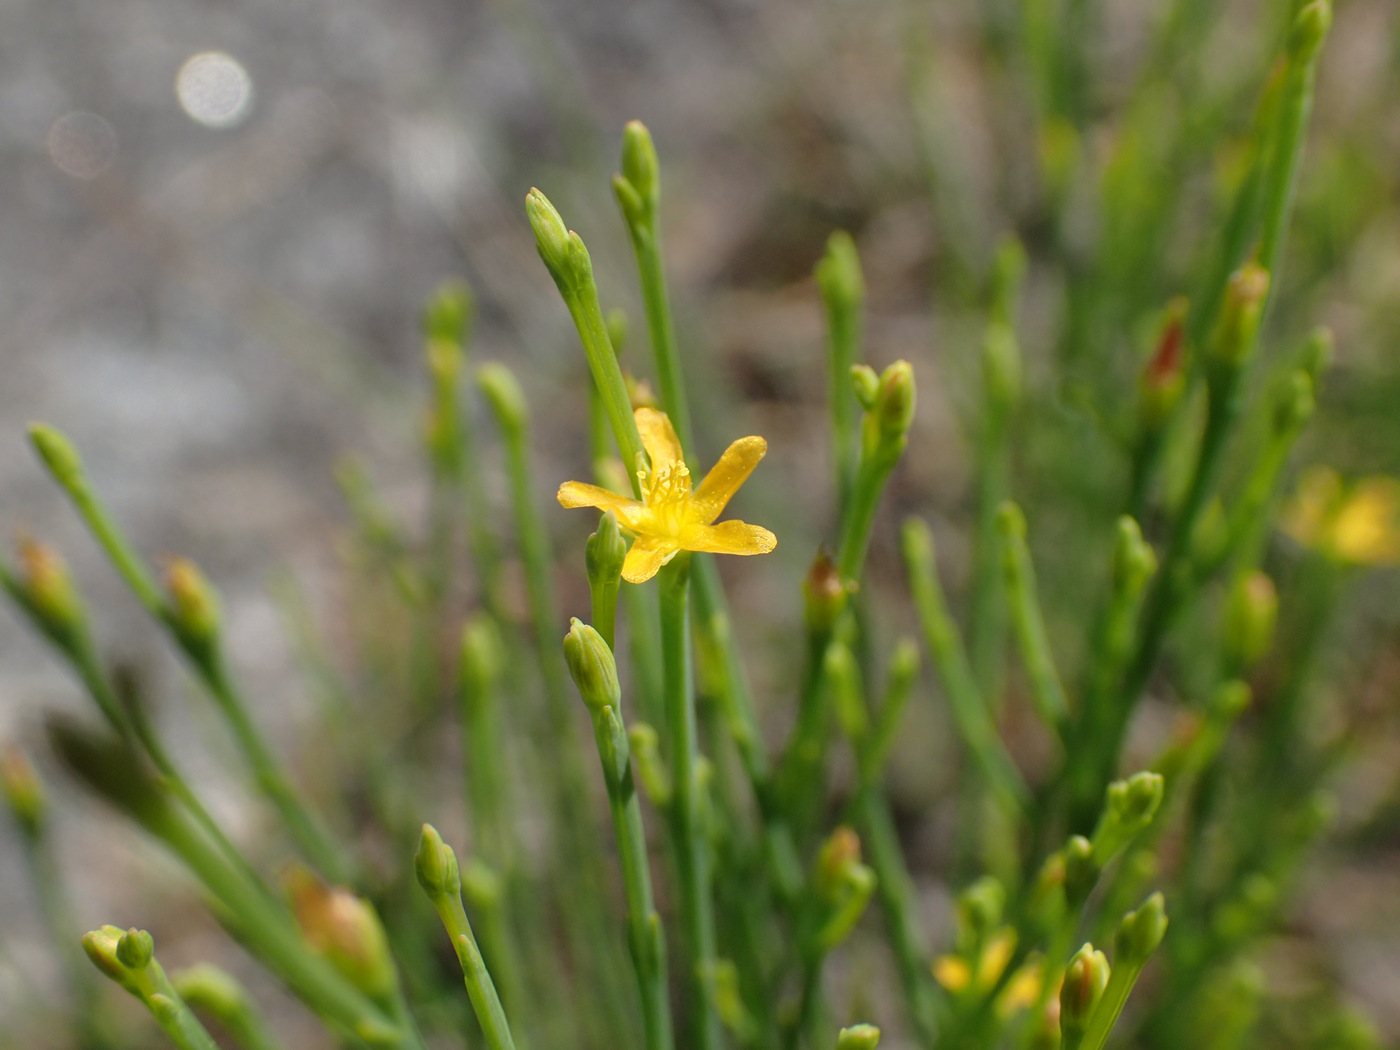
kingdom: Plantae
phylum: Tracheophyta
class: Magnoliopsida
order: Malpighiales
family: Hypericaceae
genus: Hypericum
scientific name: Hypericum gentianoides
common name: Gentian-leaved st. john's-wort
